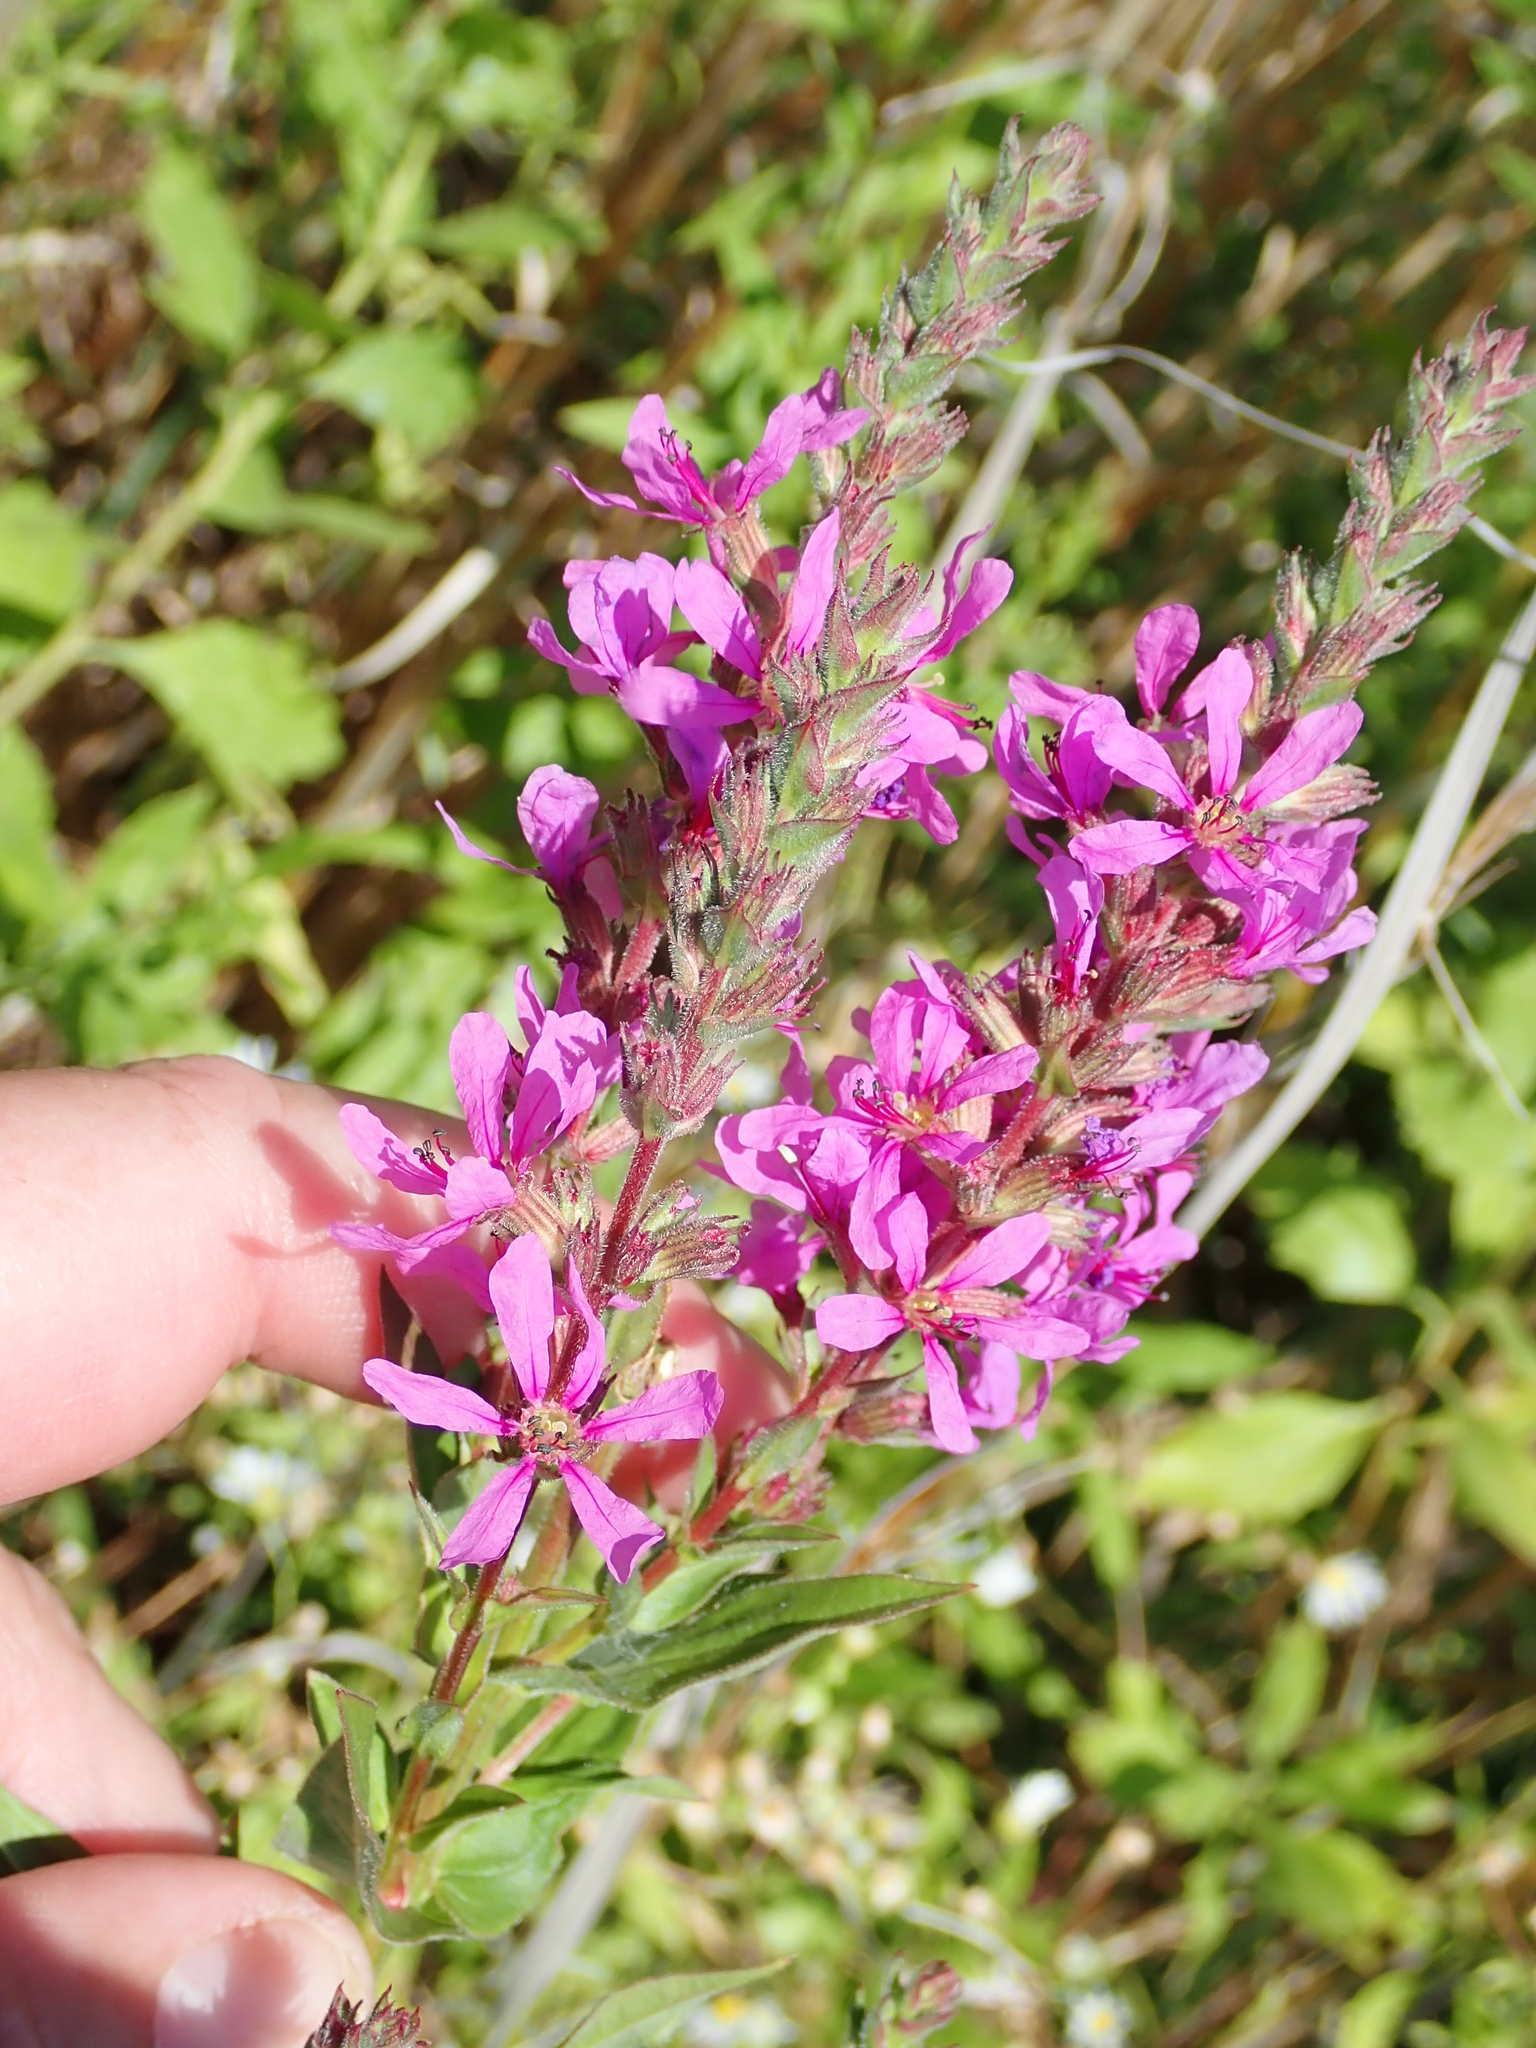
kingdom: Plantae
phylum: Tracheophyta
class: Magnoliopsida
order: Myrtales
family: Lythraceae
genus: Lythrum
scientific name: Lythrum salicaria
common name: Purple loosestrife
